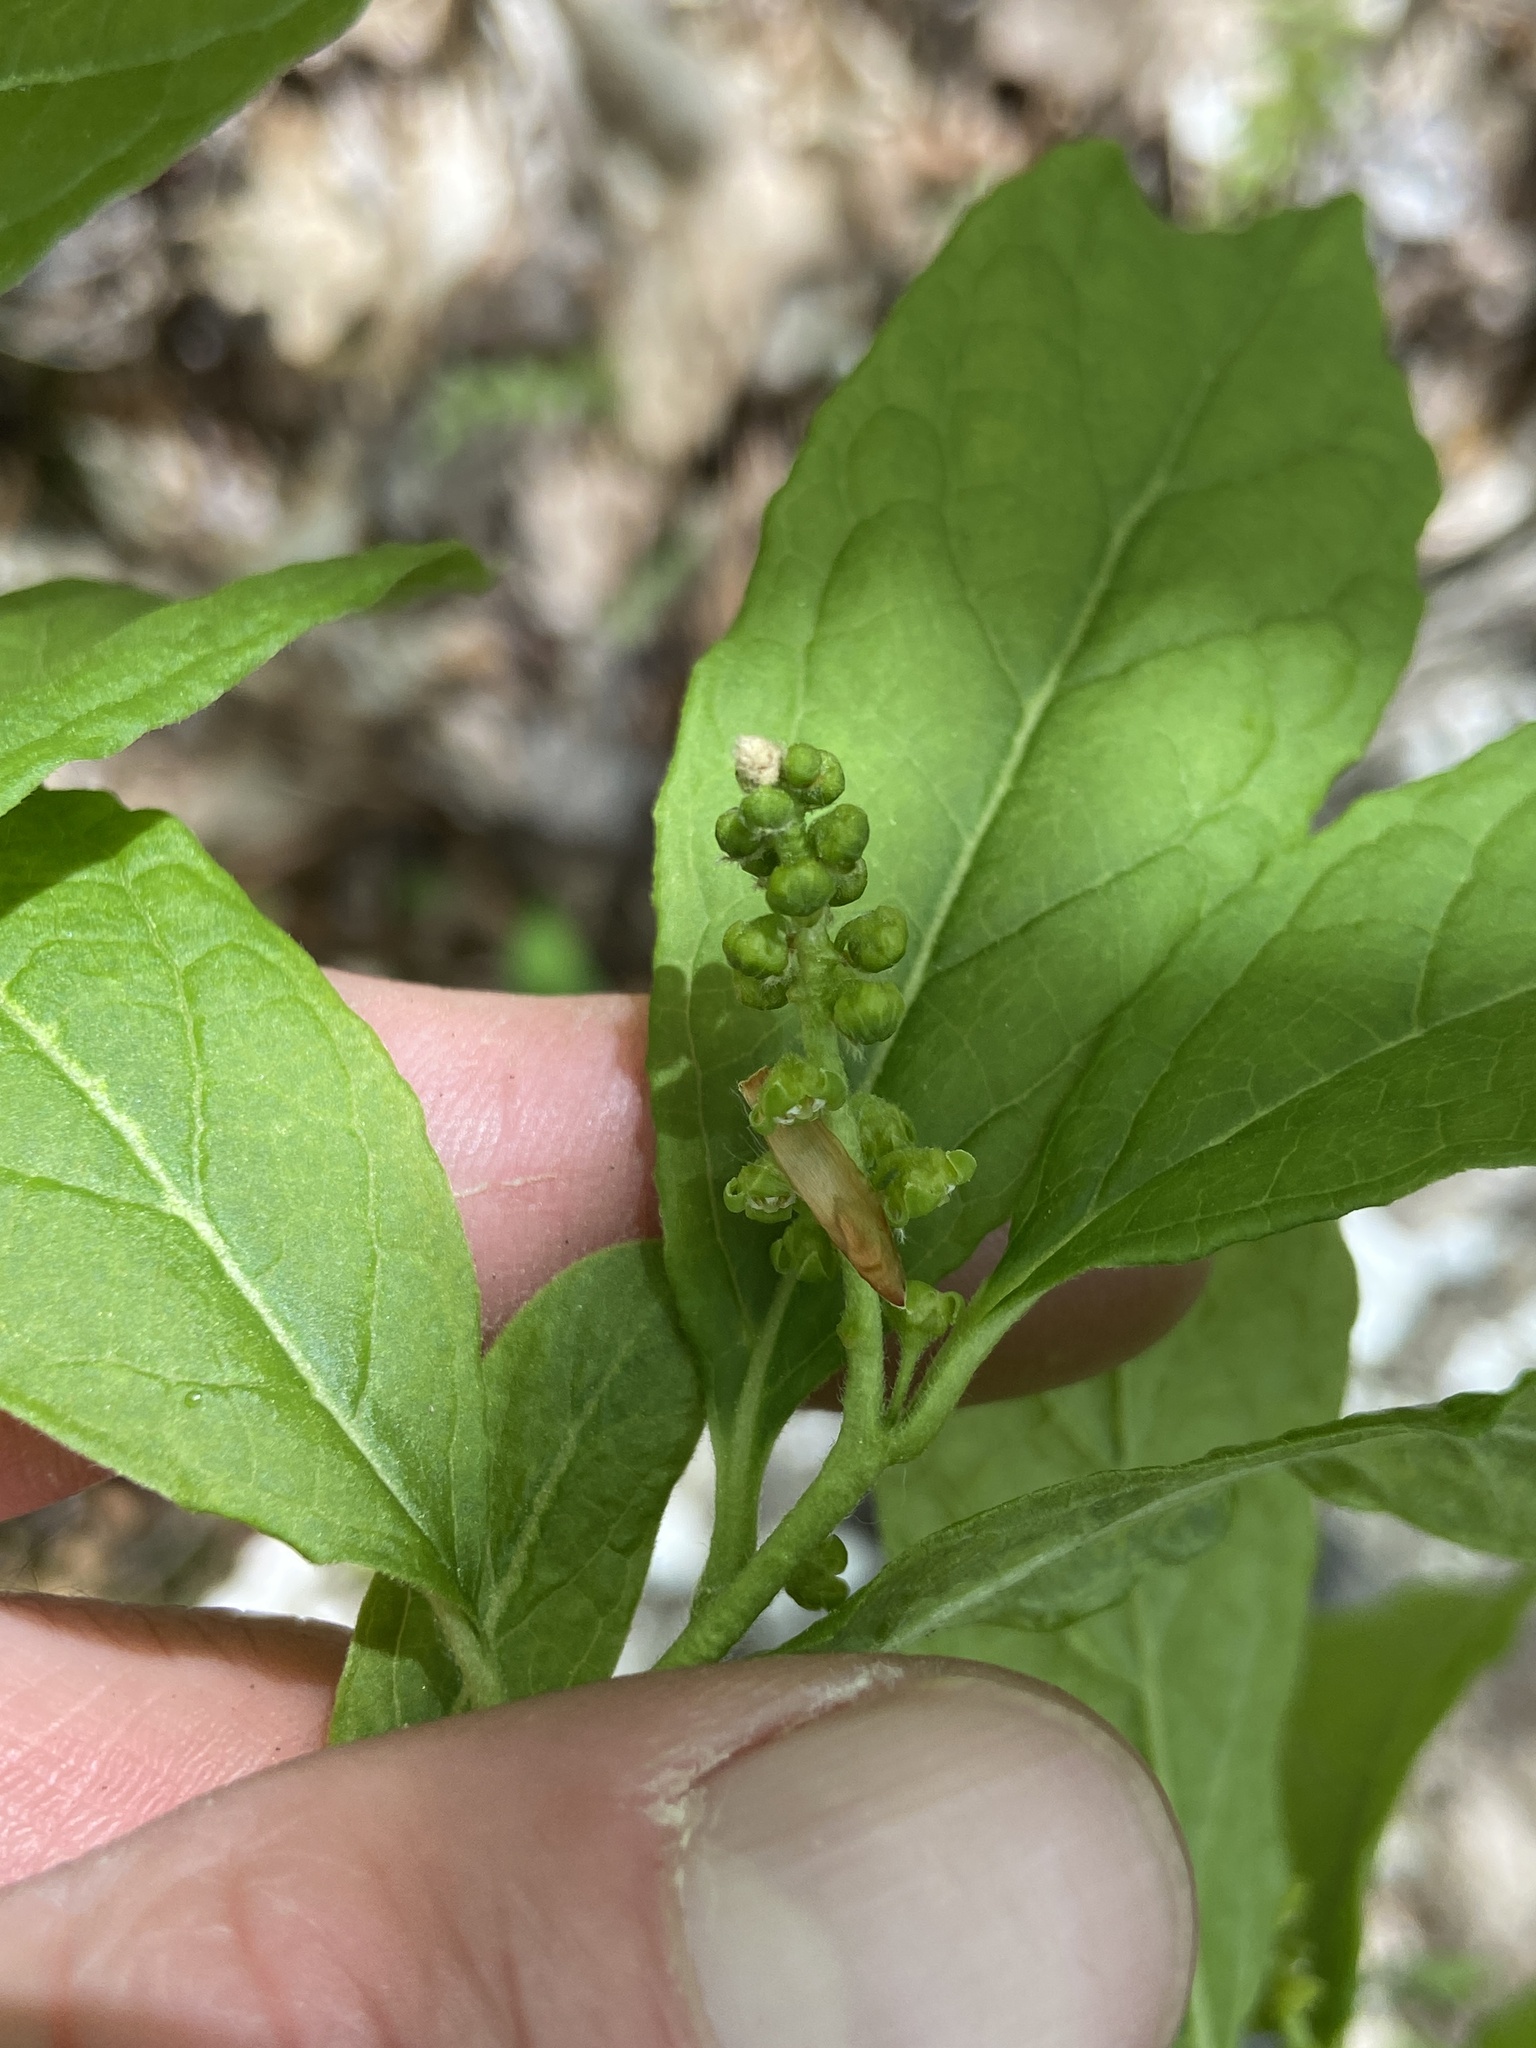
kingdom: Plantae
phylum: Tracheophyta
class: Magnoliopsida
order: Santalales
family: Cervantesiaceae
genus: Pyrularia
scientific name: Pyrularia pubera
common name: Oilnut
